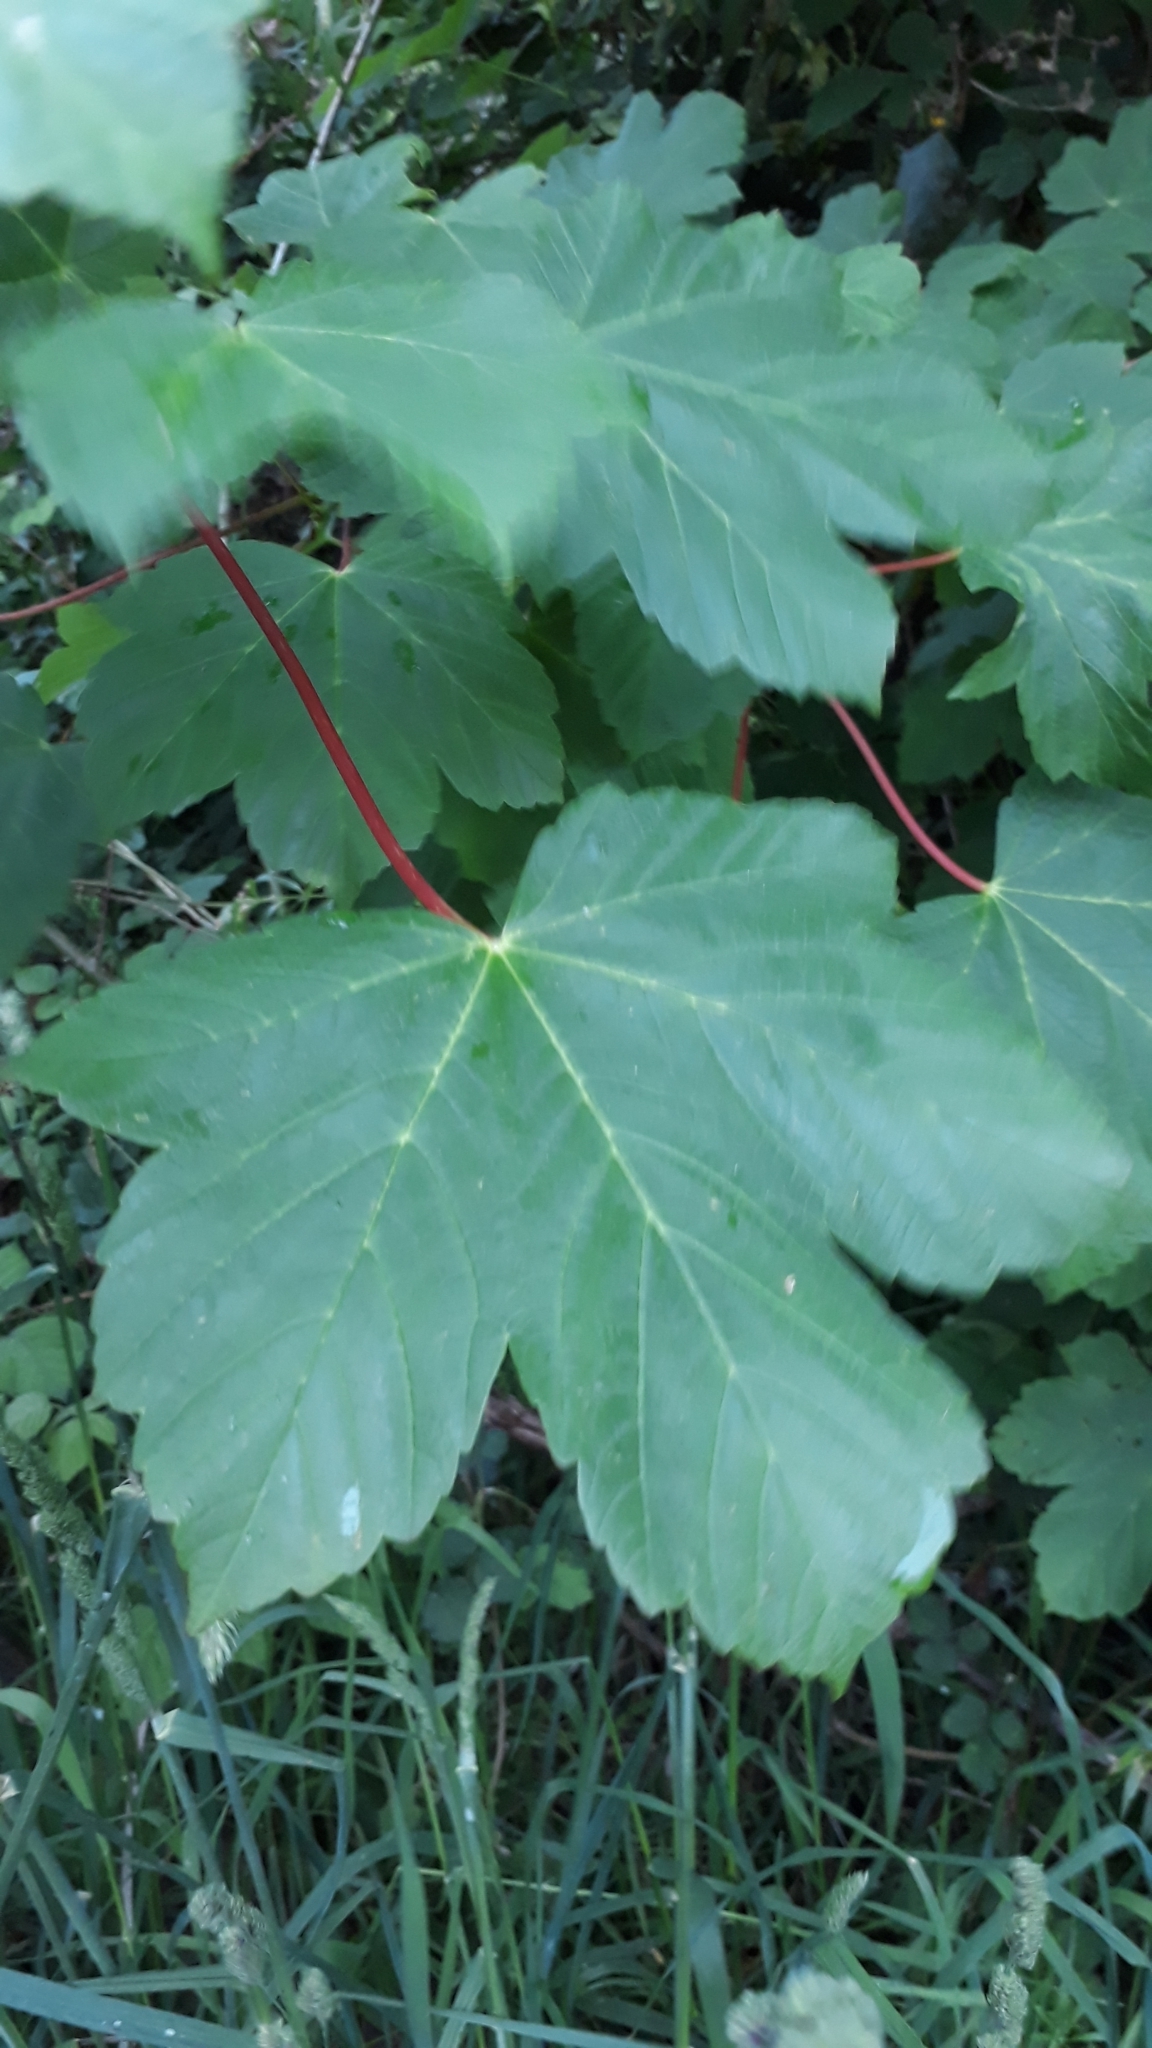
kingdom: Plantae
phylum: Tracheophyta
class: Magnoliopsida
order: Sapindales
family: Sapindaceae
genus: Acer
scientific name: Acer pseudoplatanus
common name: Sycamore
